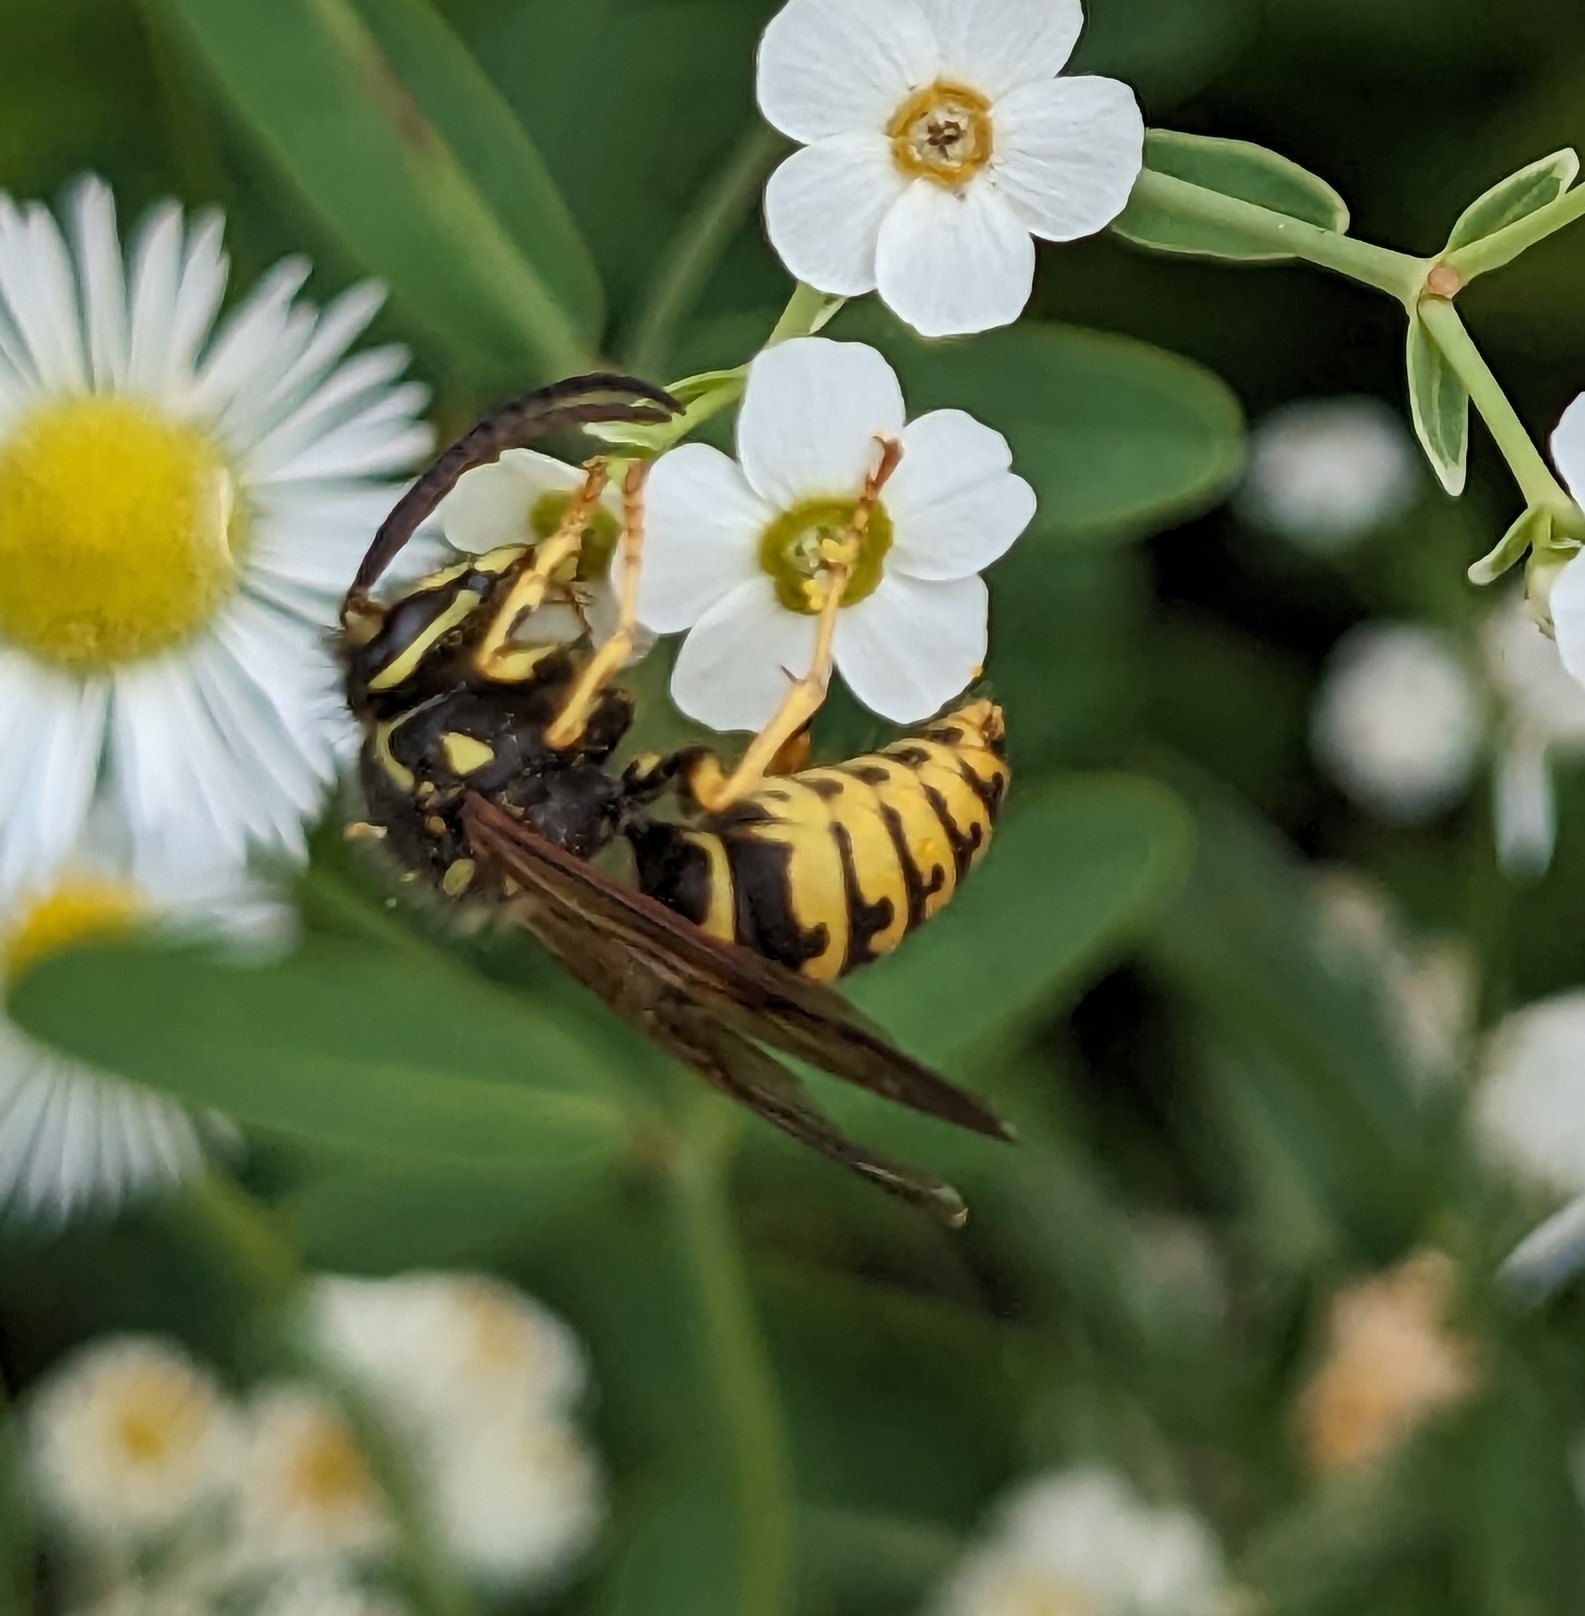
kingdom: Animalia
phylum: Arthropoda
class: Insecta
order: Hymenoptera
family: Vespidae
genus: Dolichovespula
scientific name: Dolichovespula arenaria
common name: Aerial yellowjacket
